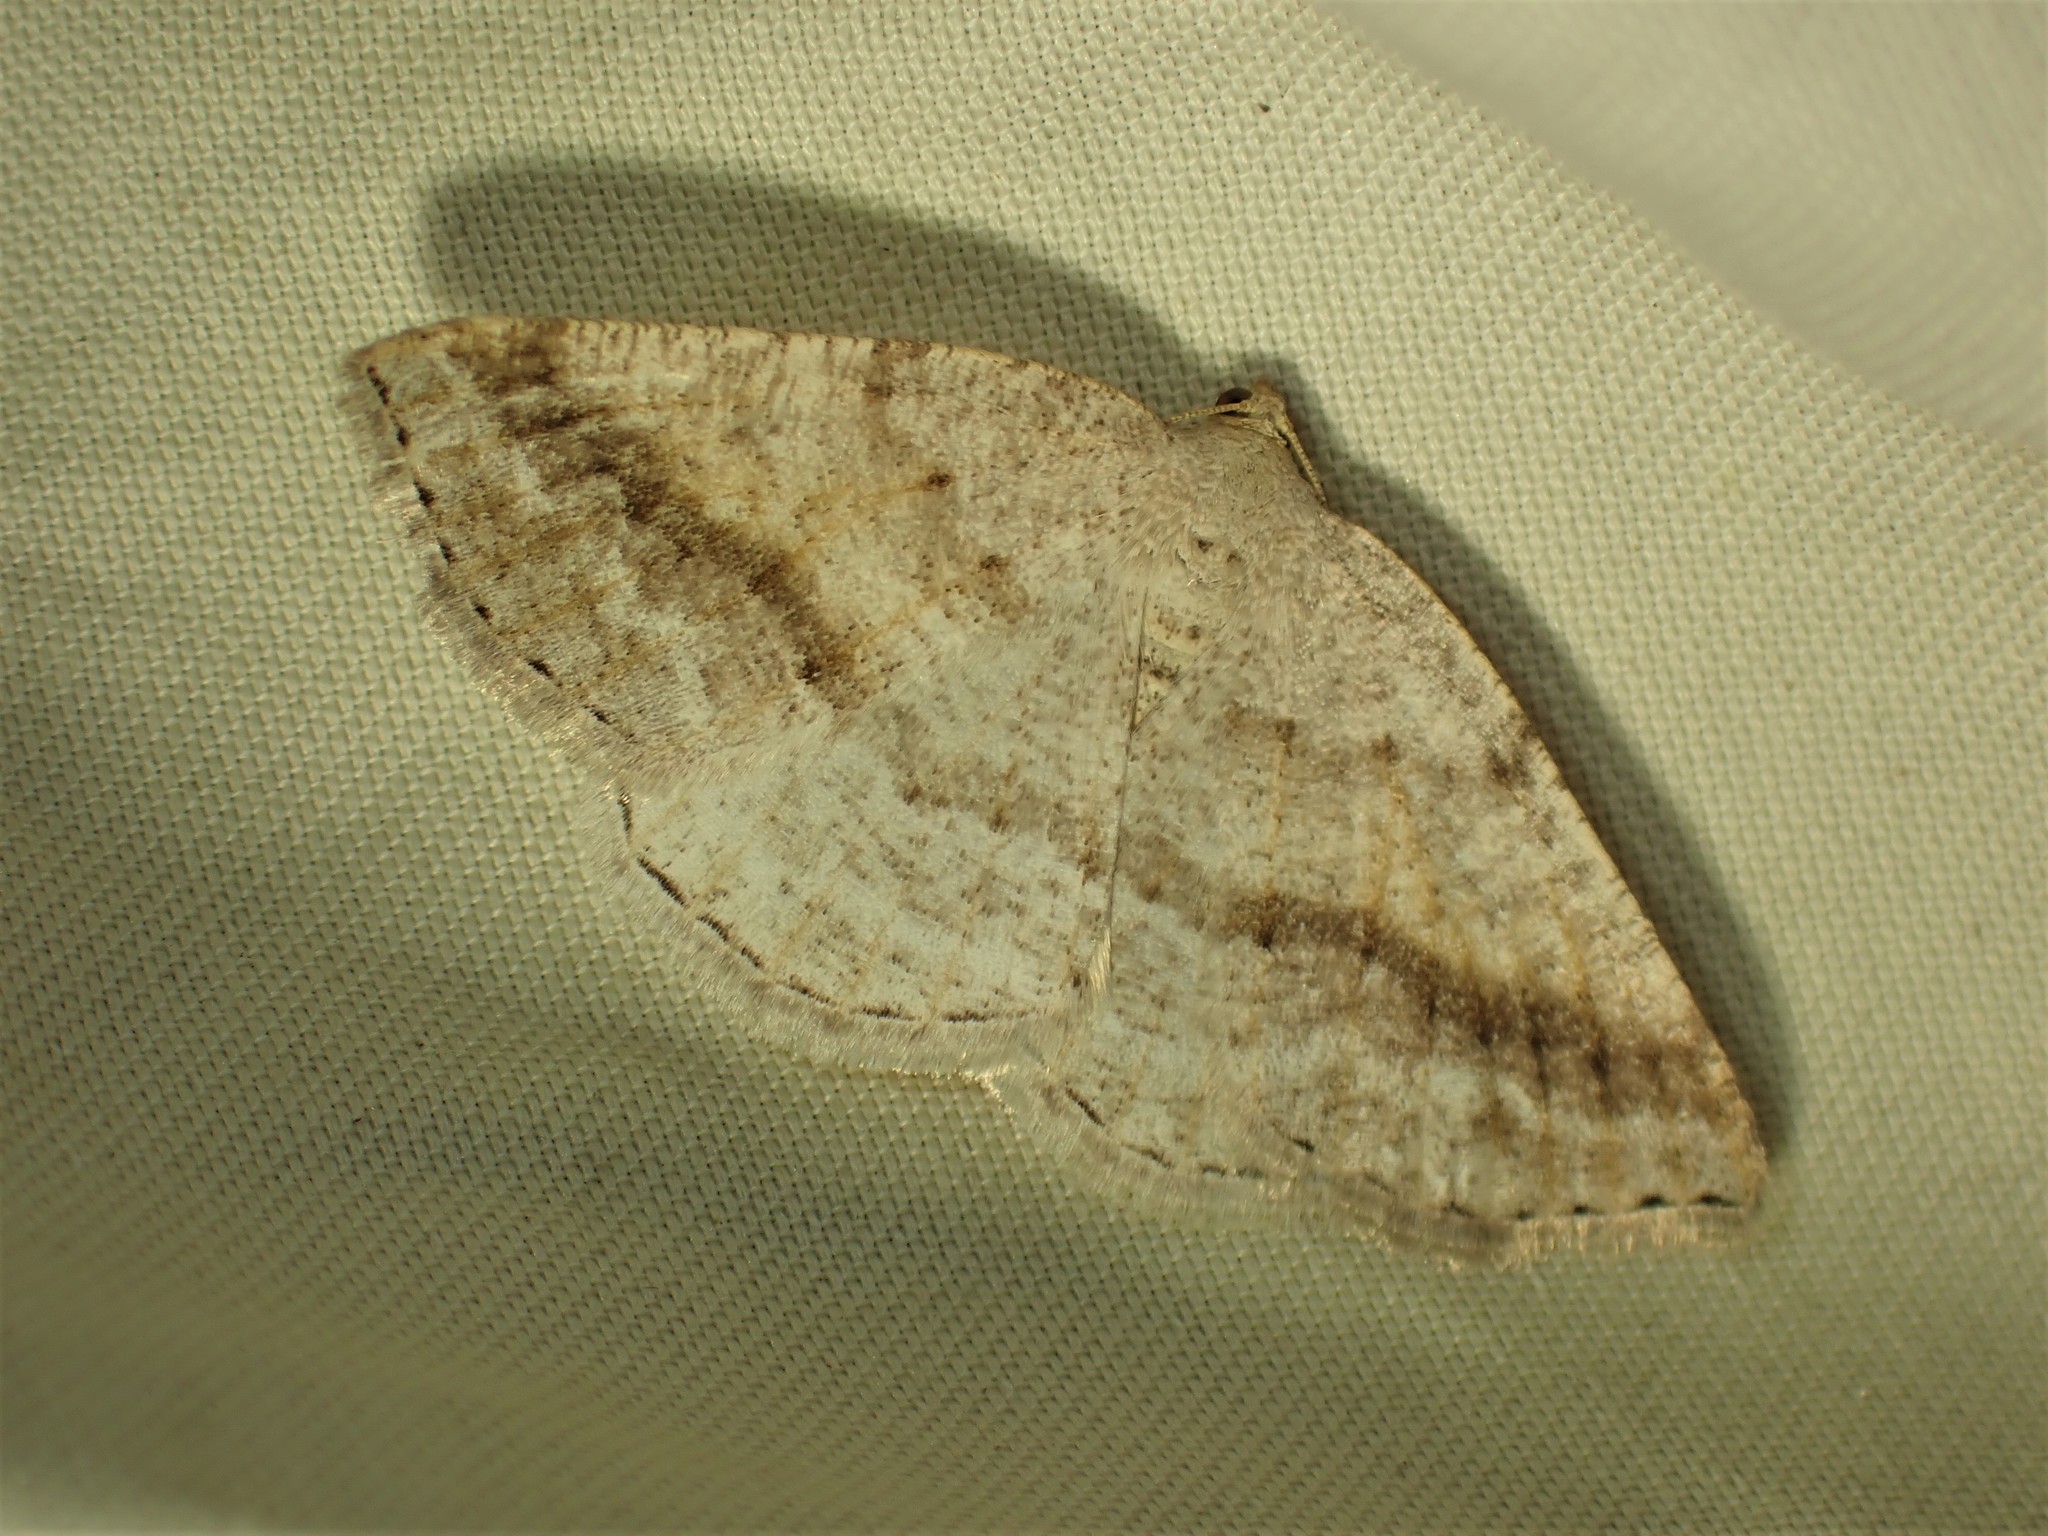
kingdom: Animalia
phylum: Arthropoda
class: Insecta
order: Lepidoptera
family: Geometridae
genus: Tacparia
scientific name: Tacparia detersata
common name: Pale alder moth
